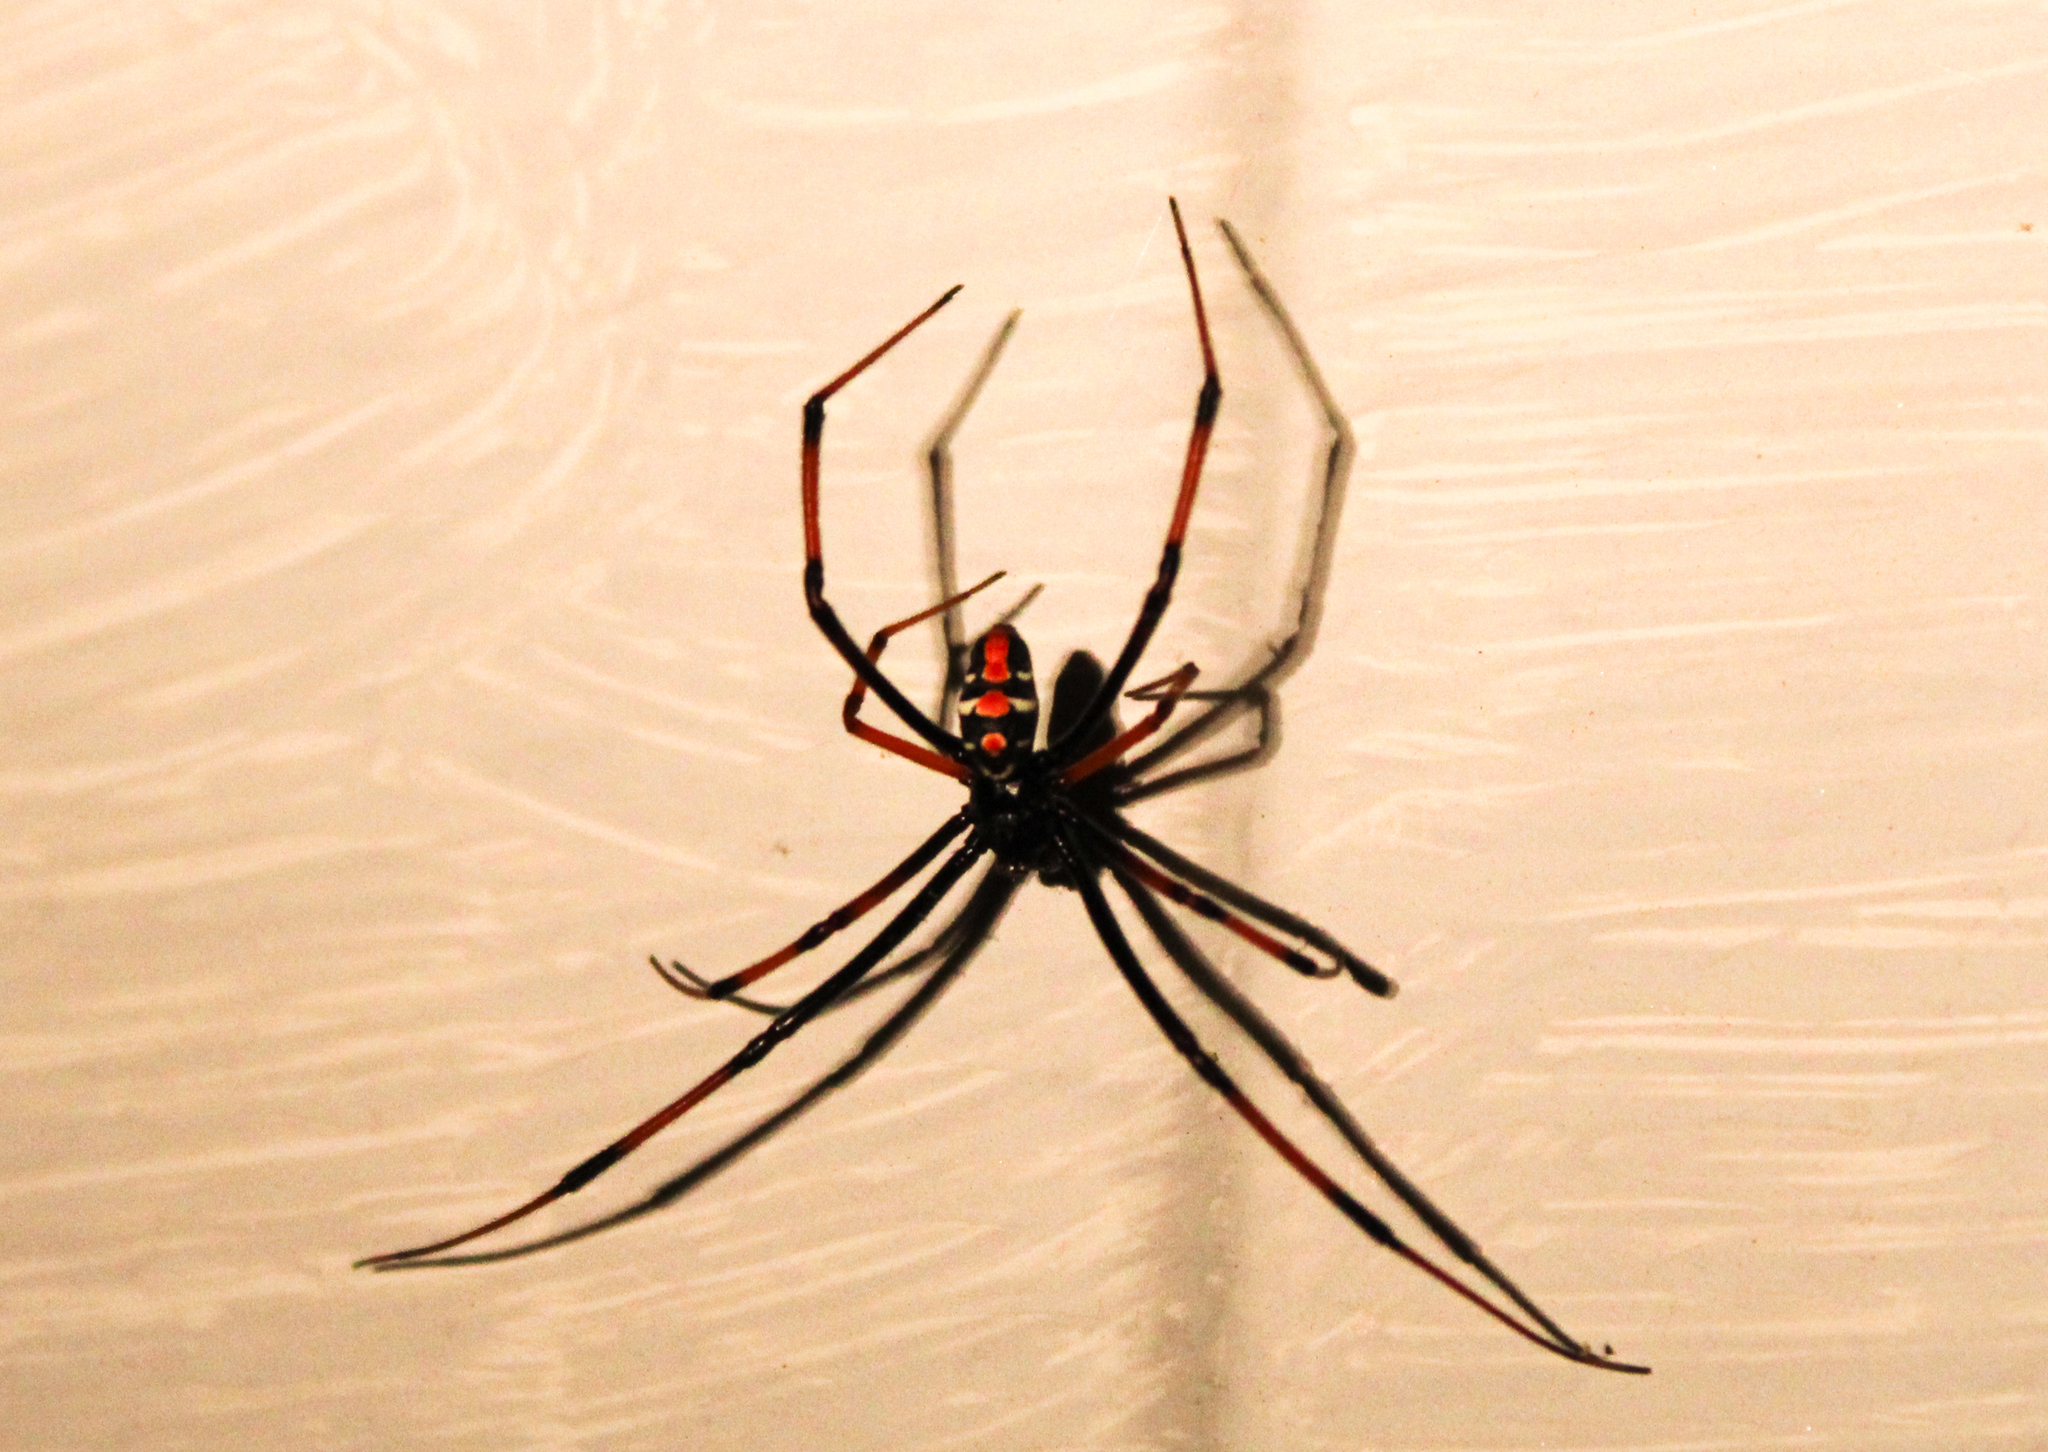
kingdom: Animalia
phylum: Arthropoda
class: Arachnida
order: Araneae
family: Theridiidae
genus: Latrodectus
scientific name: Latrodectus variolus
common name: Northern black widow
